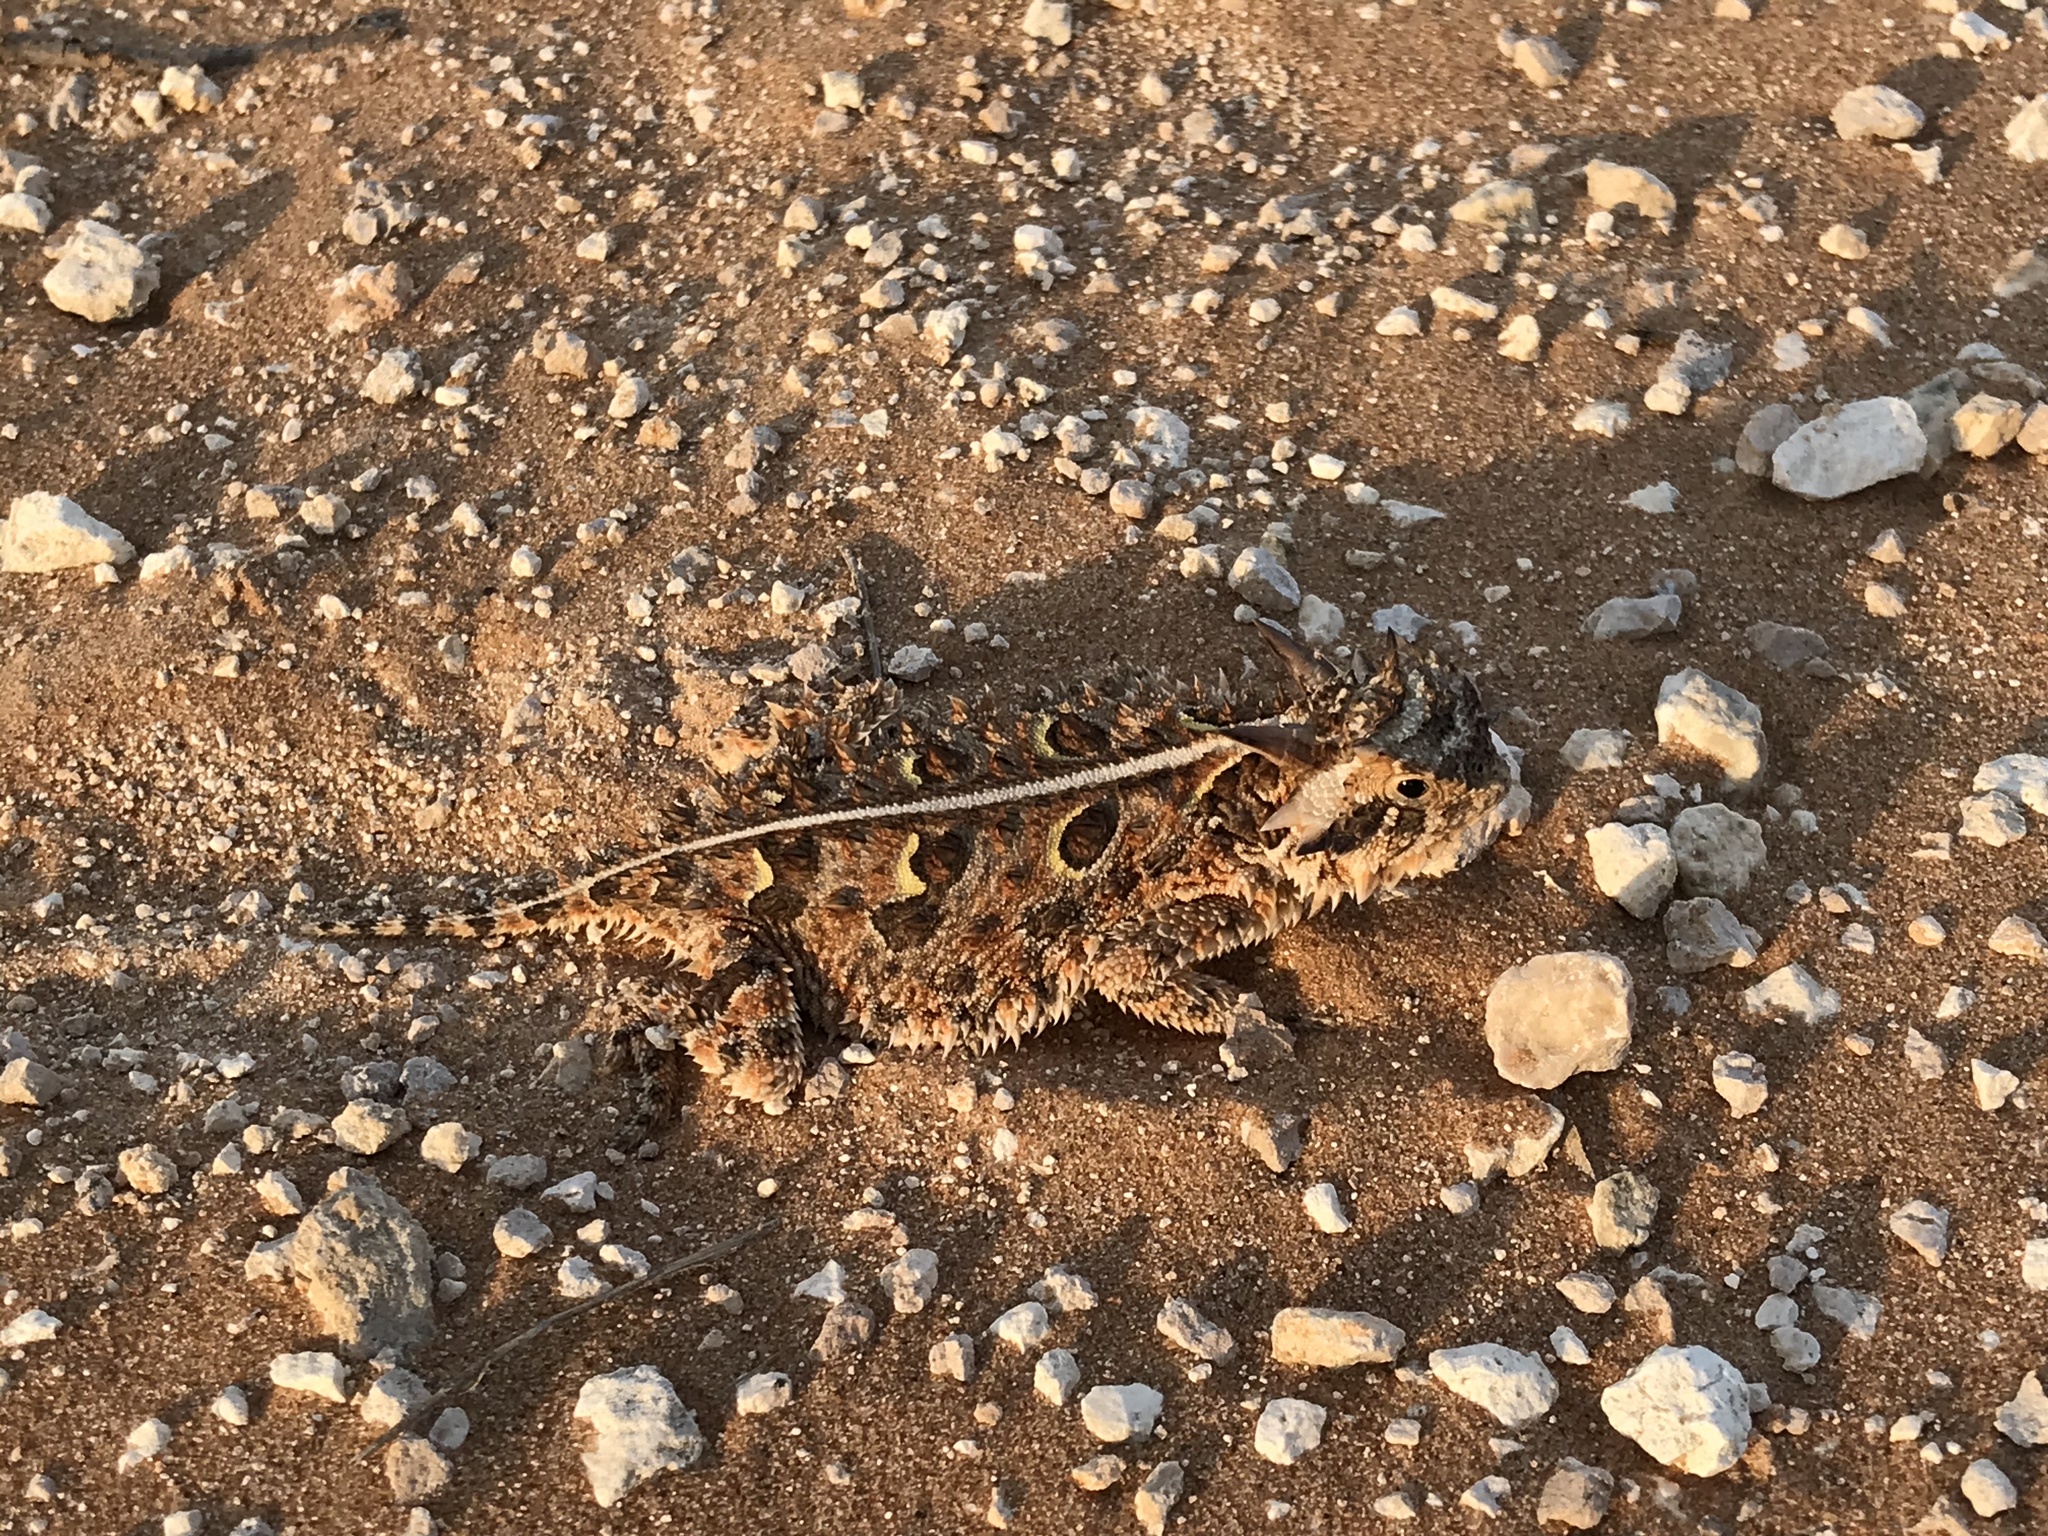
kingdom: Animalia
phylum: Chordata
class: Squamata
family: Phrynosomatidae
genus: Phrynosoma
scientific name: Phrynosoma cornutum
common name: Texas horned lizard
